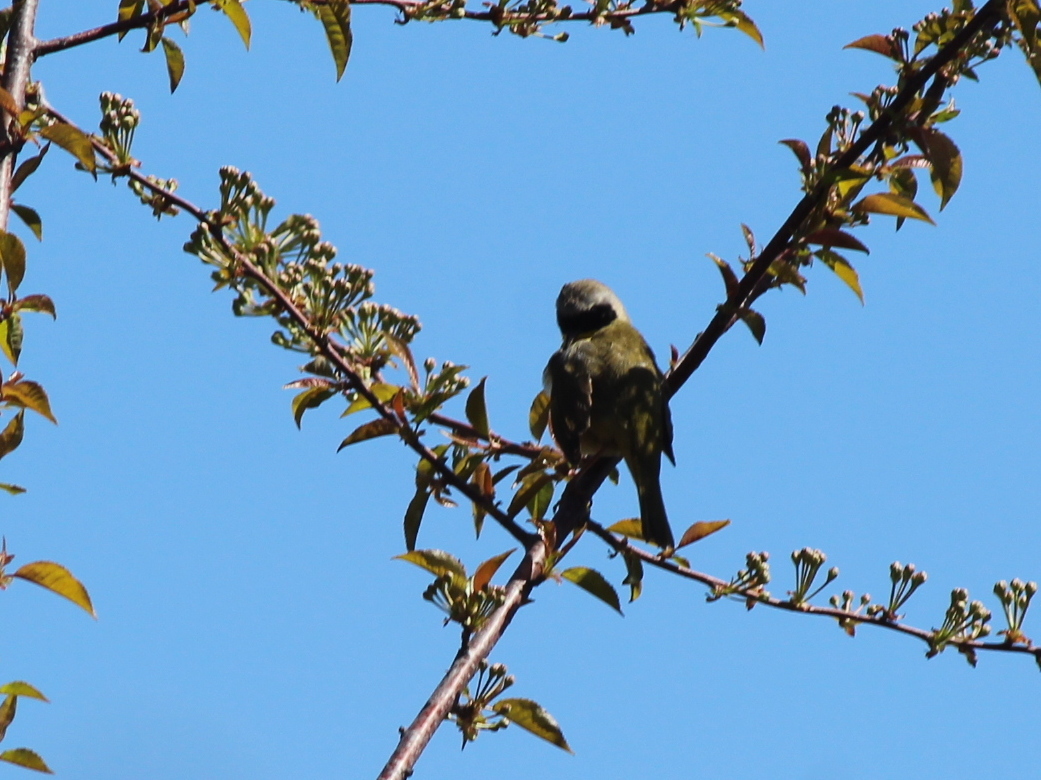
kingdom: Animalia
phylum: Chordata
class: Aves
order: Passeriformes
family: Parulidae
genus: Geothlypis
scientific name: Geothlypis trichas
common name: Common yellowthroat
